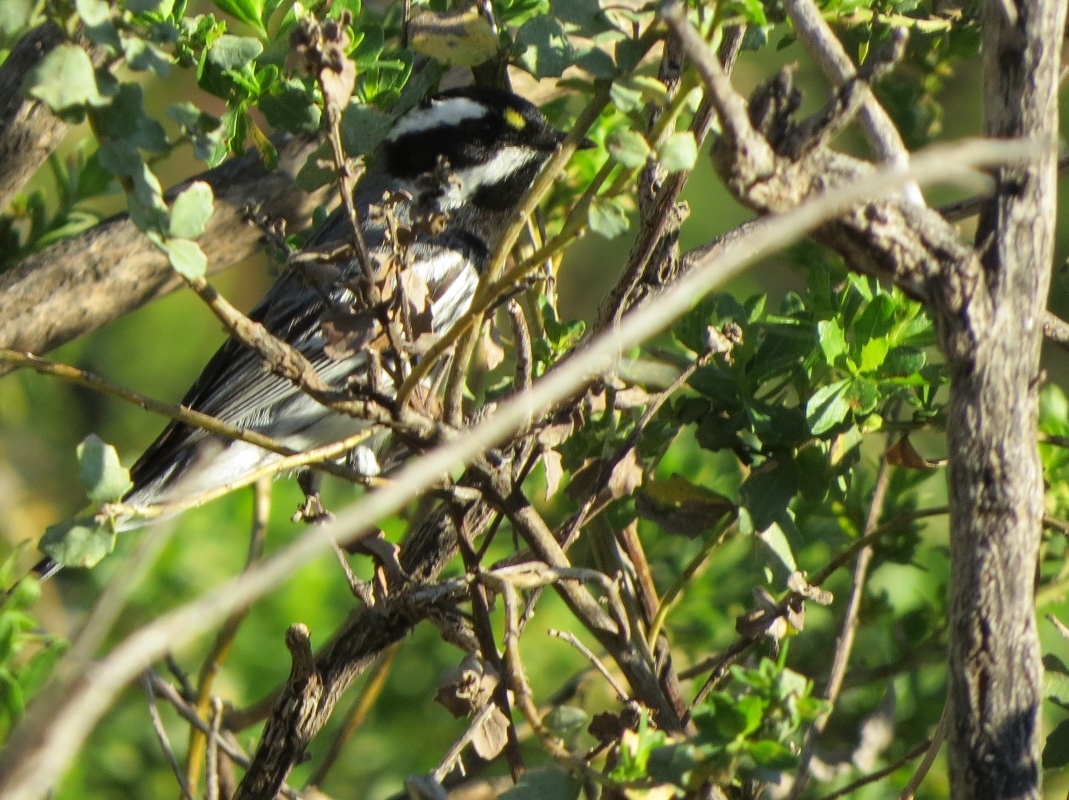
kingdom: Animalia
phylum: Chordata
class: Aves
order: Passeriformes
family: Parulidae
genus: Setophaga
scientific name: Setophaga nigrescens
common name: Black-throated gray warbler
